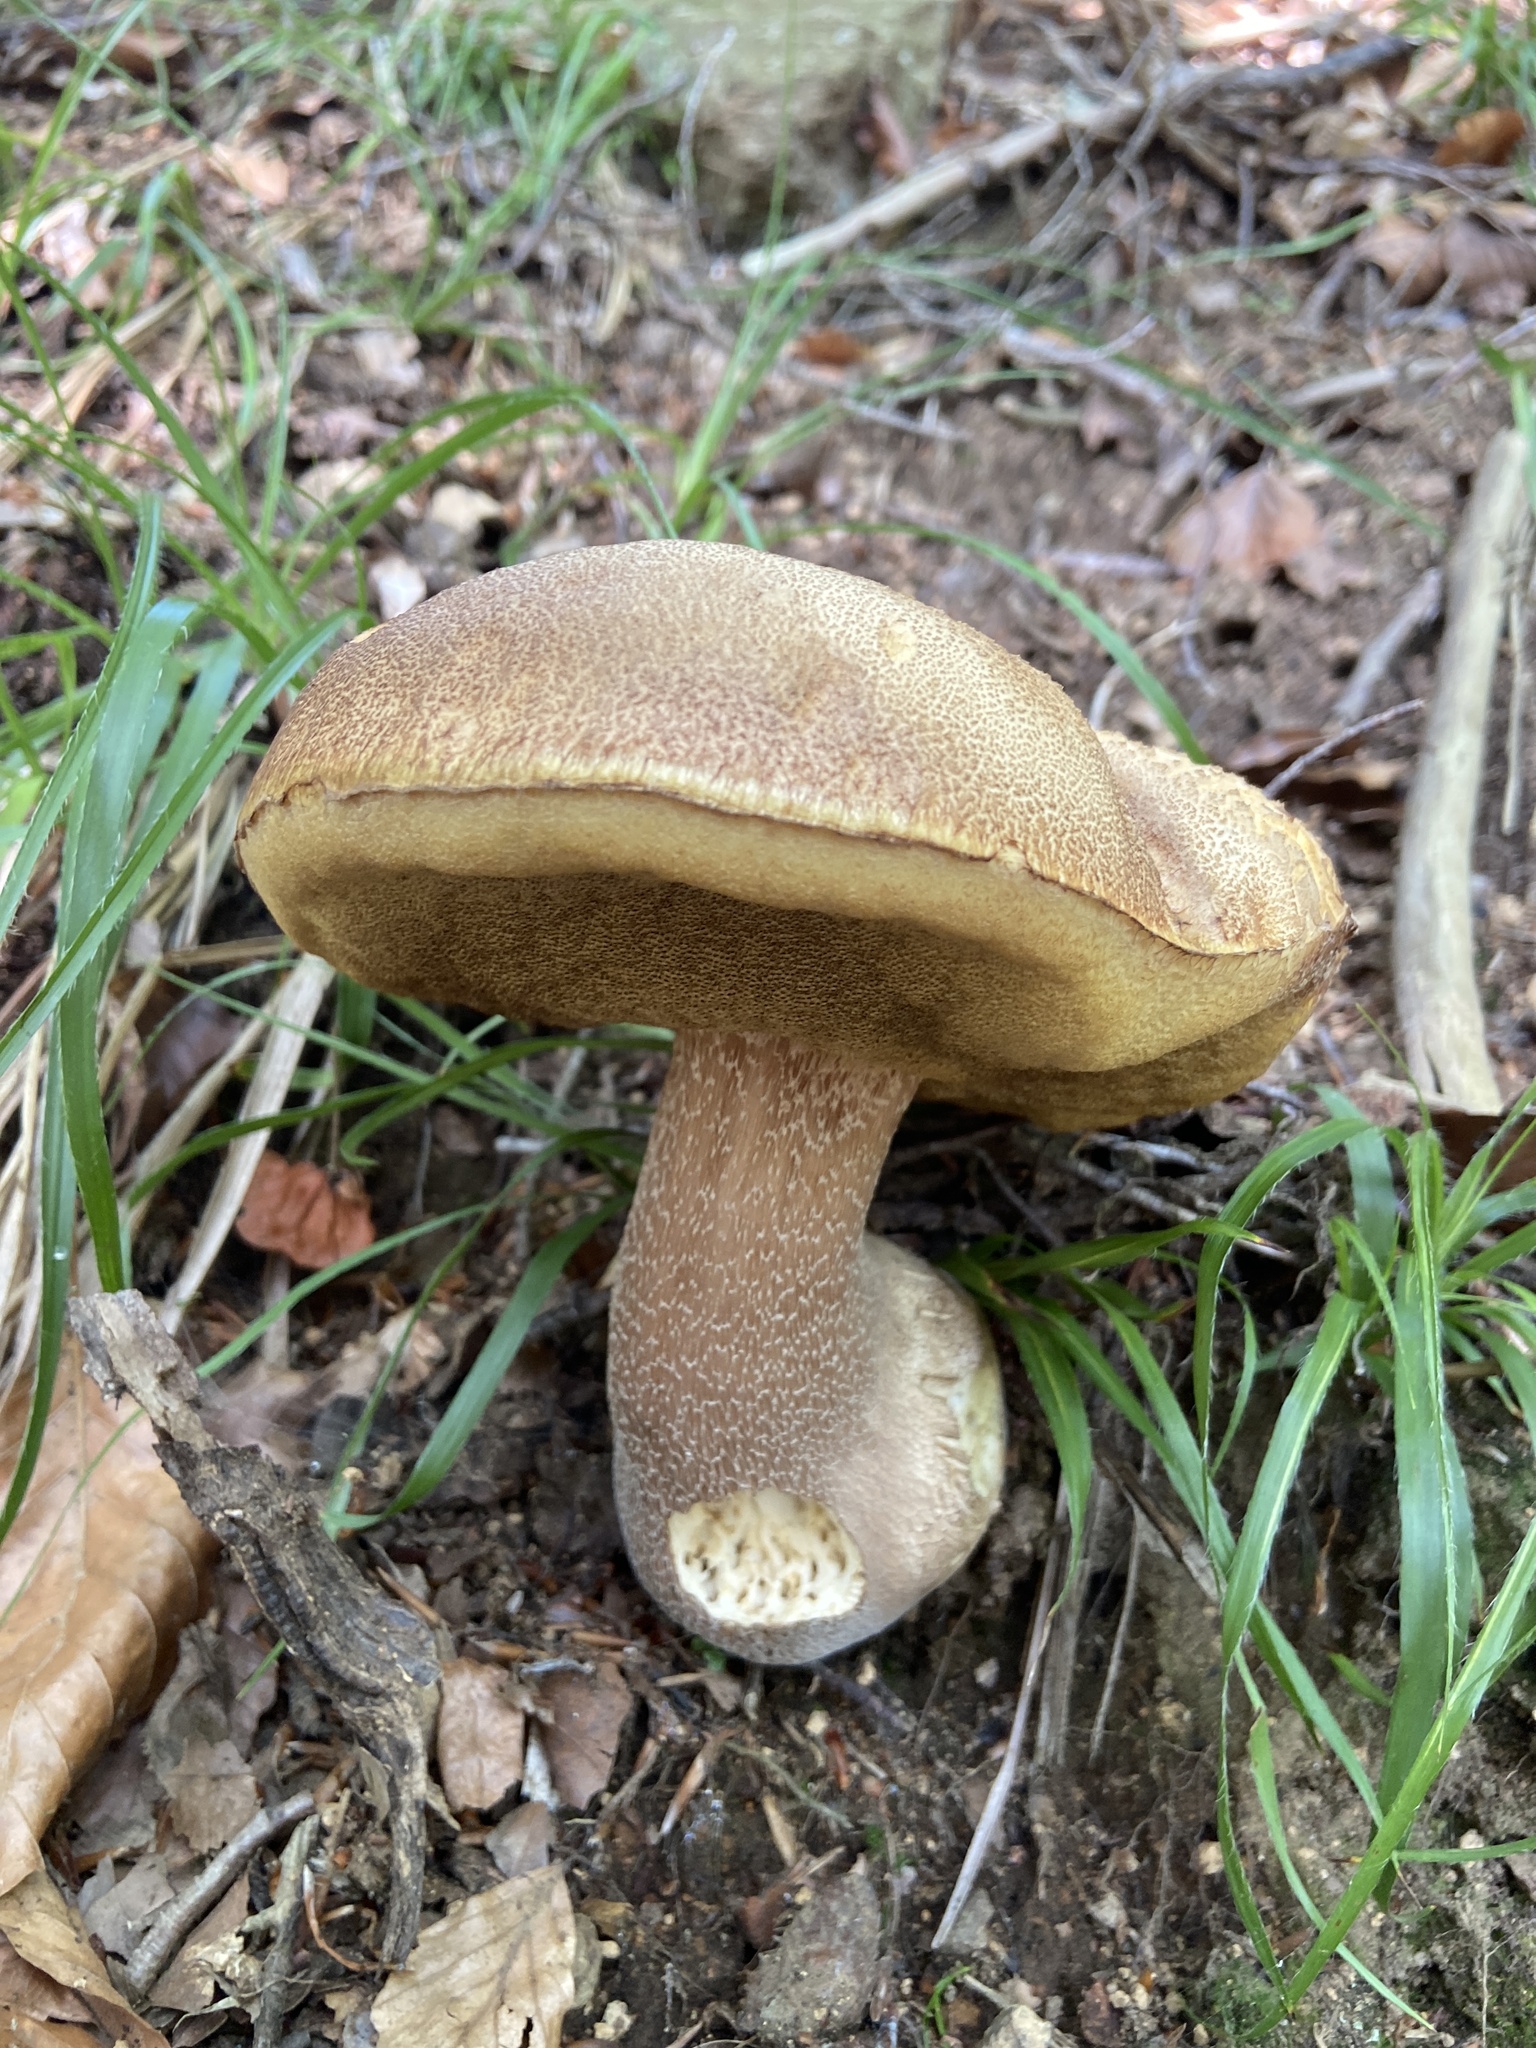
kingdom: Fungi
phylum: Basidiomycota
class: Agaricomycetes
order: Boletales
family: Boletaceae
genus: Boletus
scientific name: Boletus reticulatus
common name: Summer bolete
